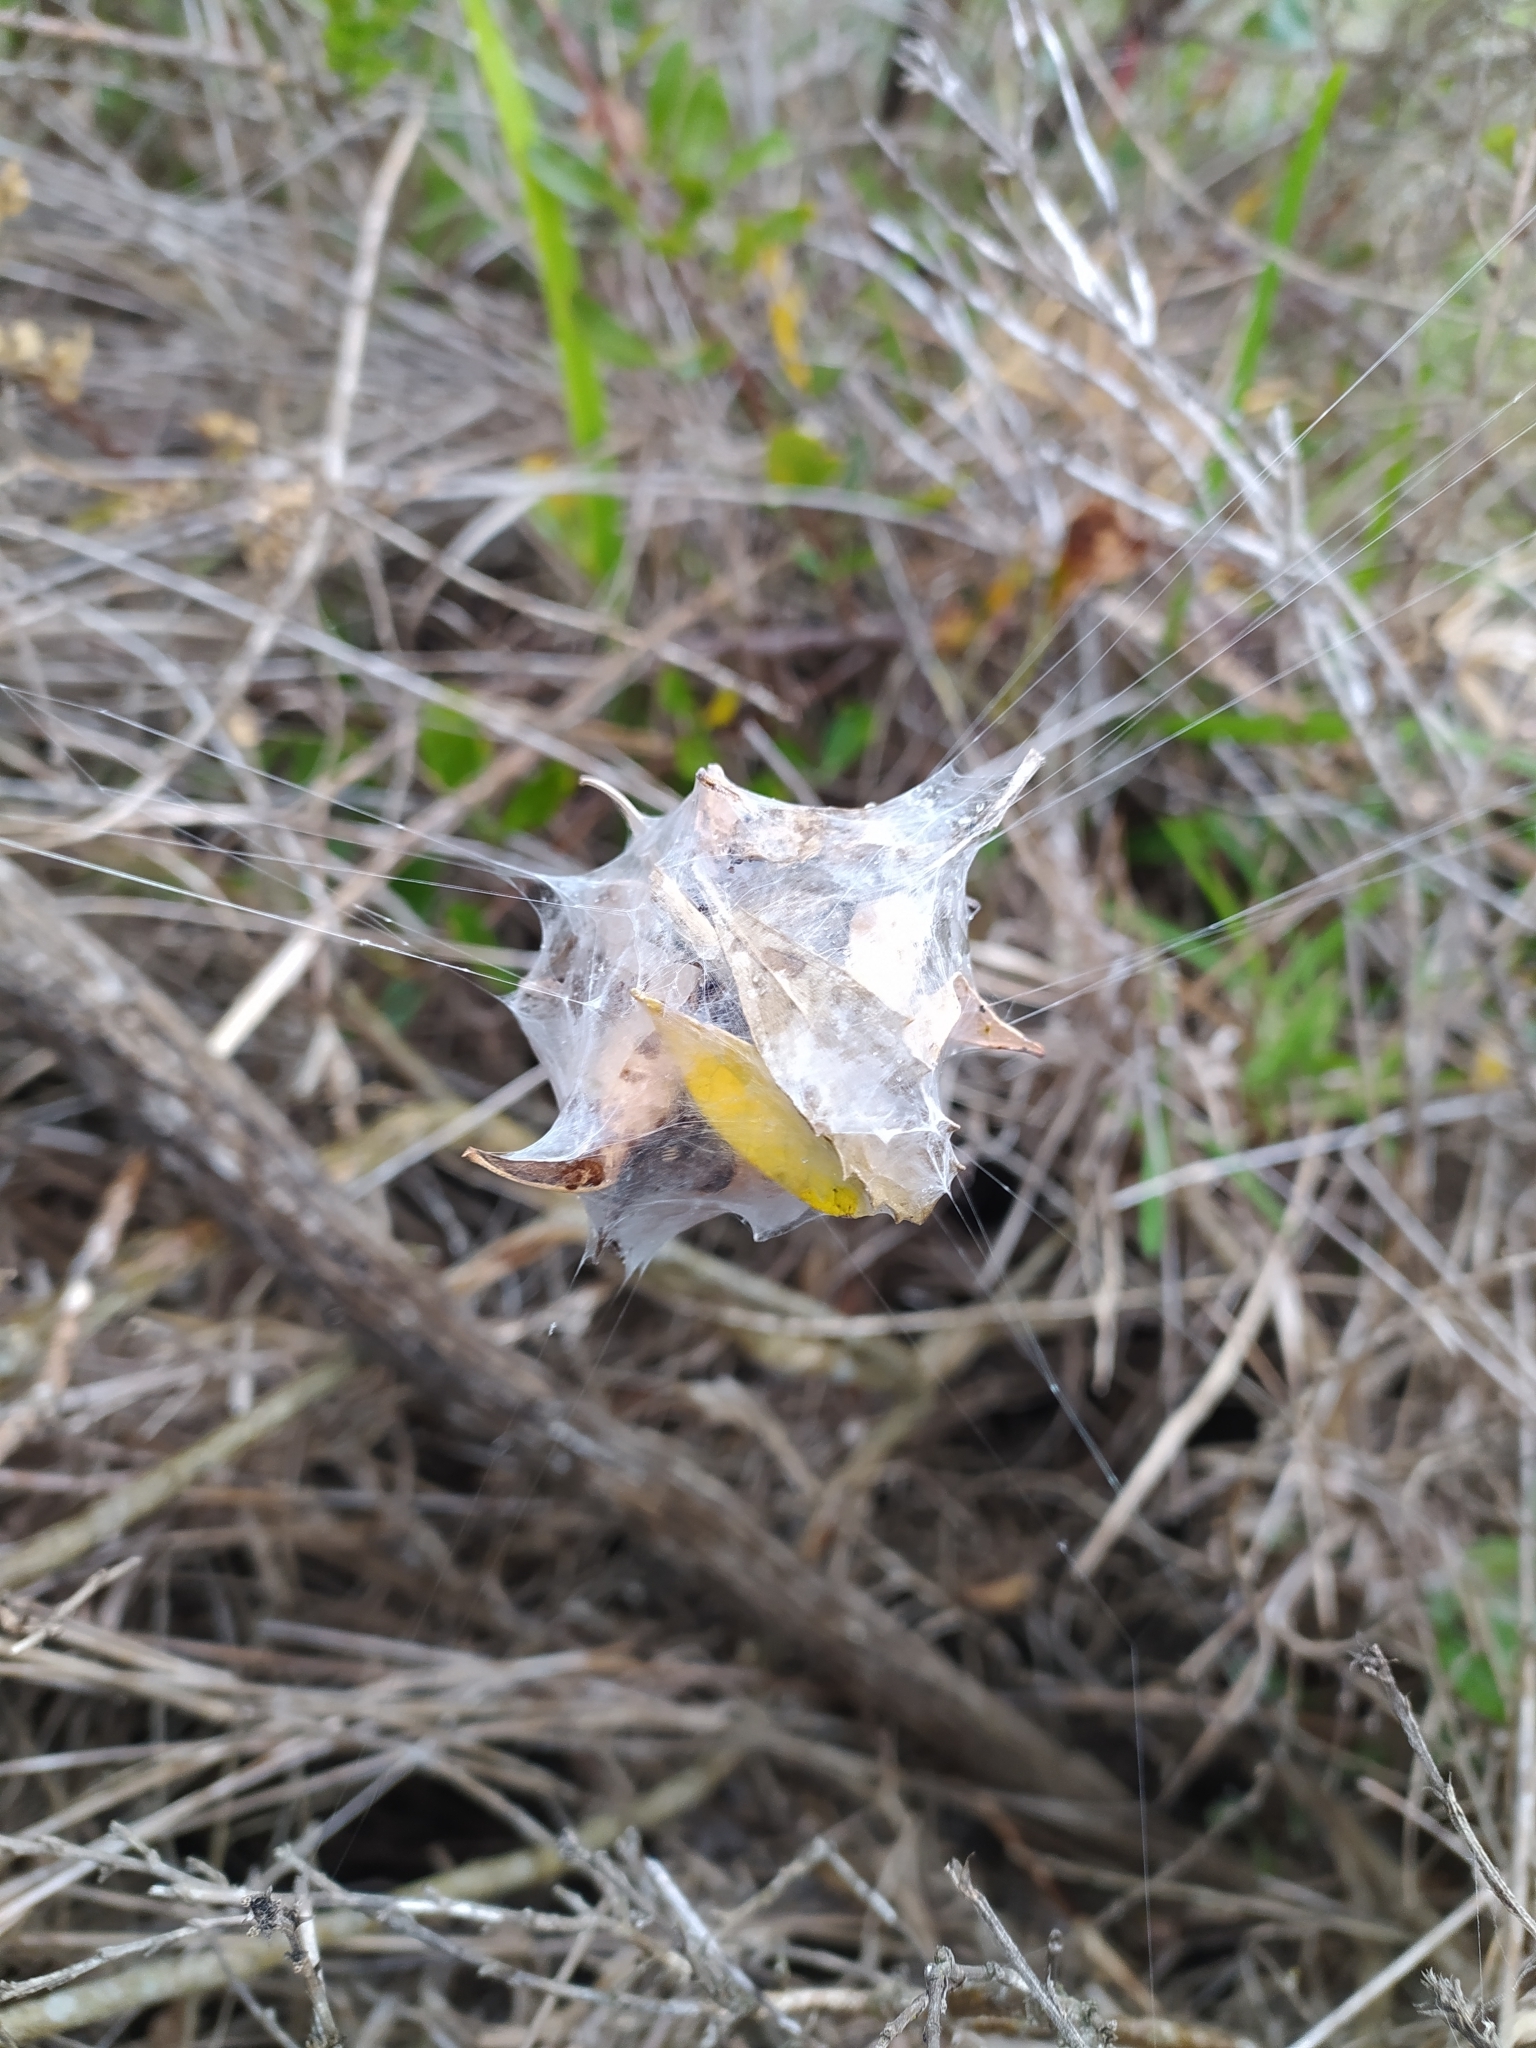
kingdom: Animalia
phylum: Arthropoda
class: Arachnida
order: Araneae
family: Sparassidae
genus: Palystes
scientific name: Palystes superciliosus
